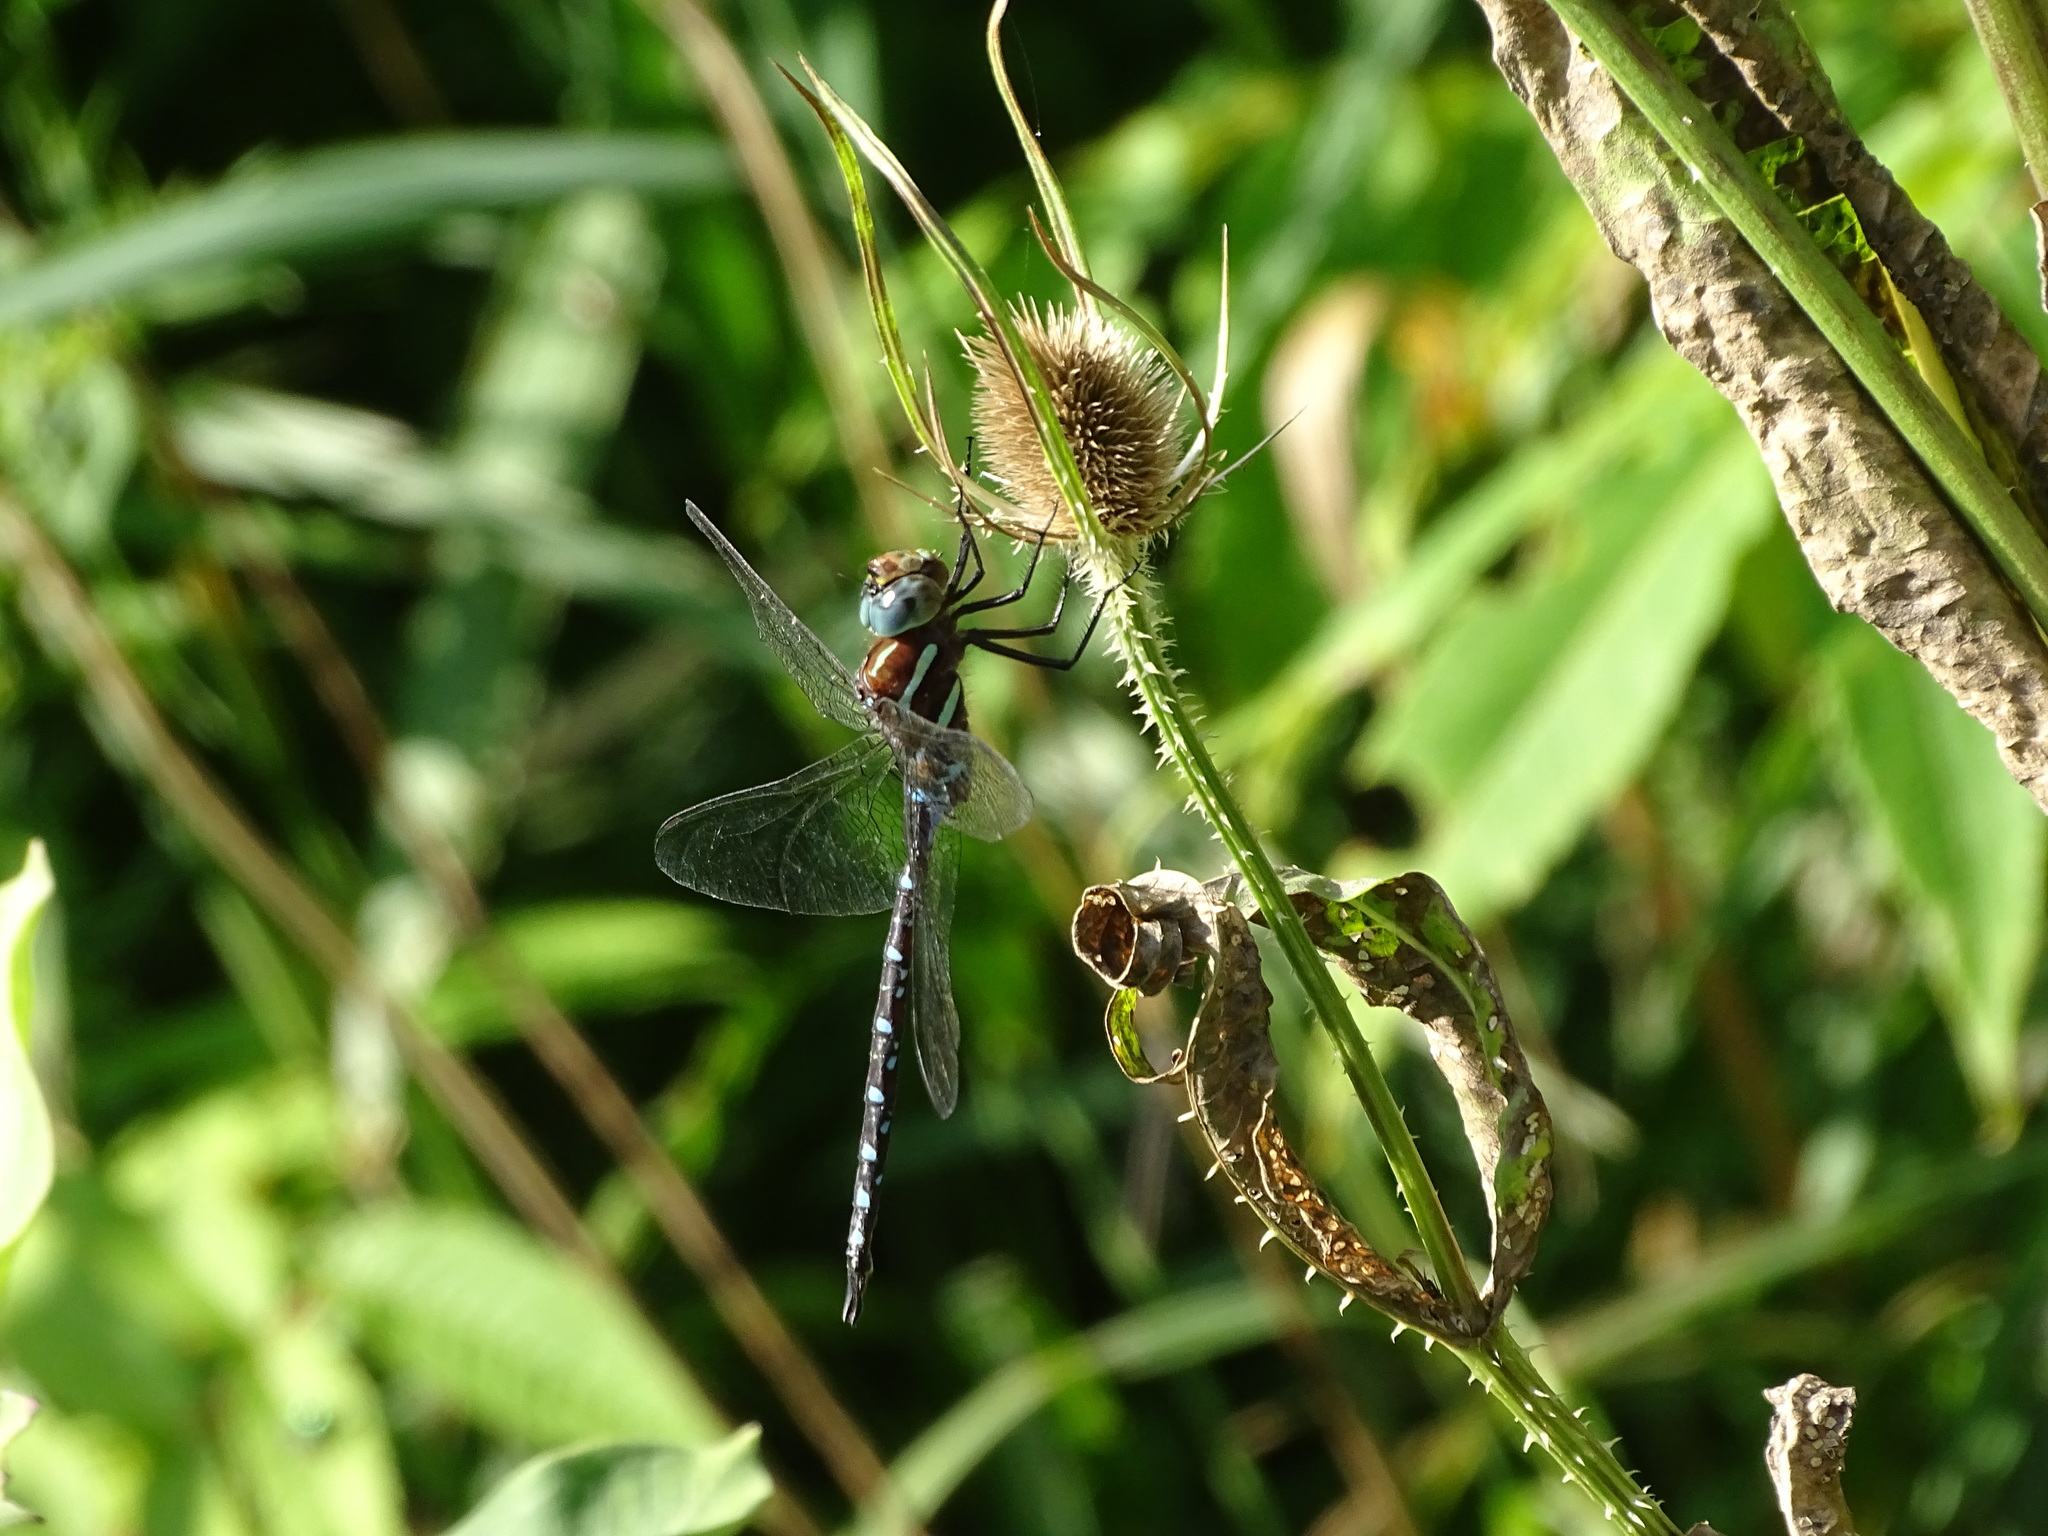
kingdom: Animalia
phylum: Arthropoda
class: Insecta
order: Odonata
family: Aeshnidae
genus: Aeshna
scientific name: Aeshna tuberculifera
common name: Aeschne à tubercules
